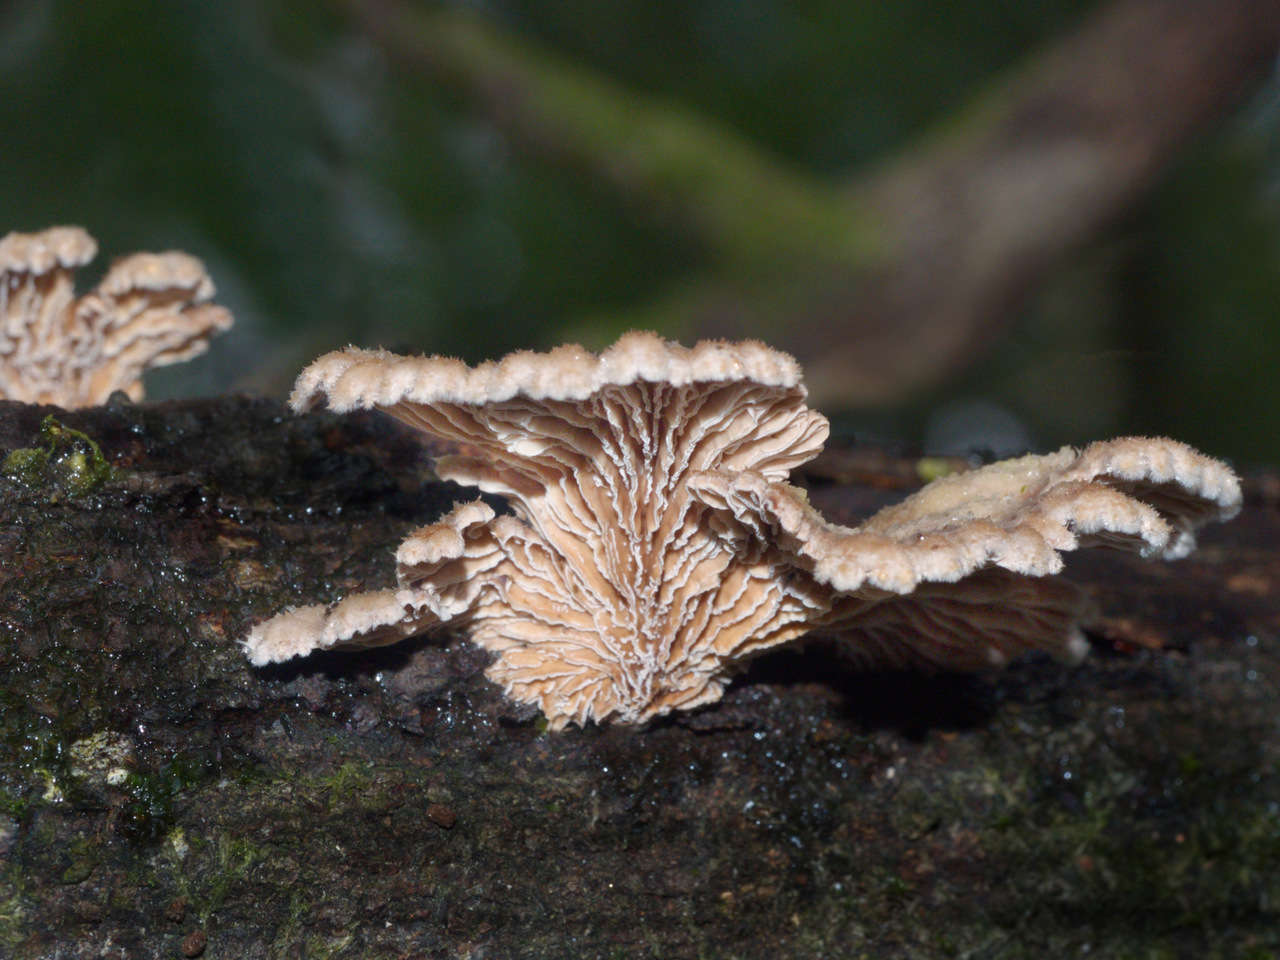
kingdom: Fungi
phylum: Basidiomycota
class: Agaricomycetes
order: Agaricales
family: Schizophyllaceae
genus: Schizophyllum
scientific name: Schizophyllum commune
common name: Common porecrust
